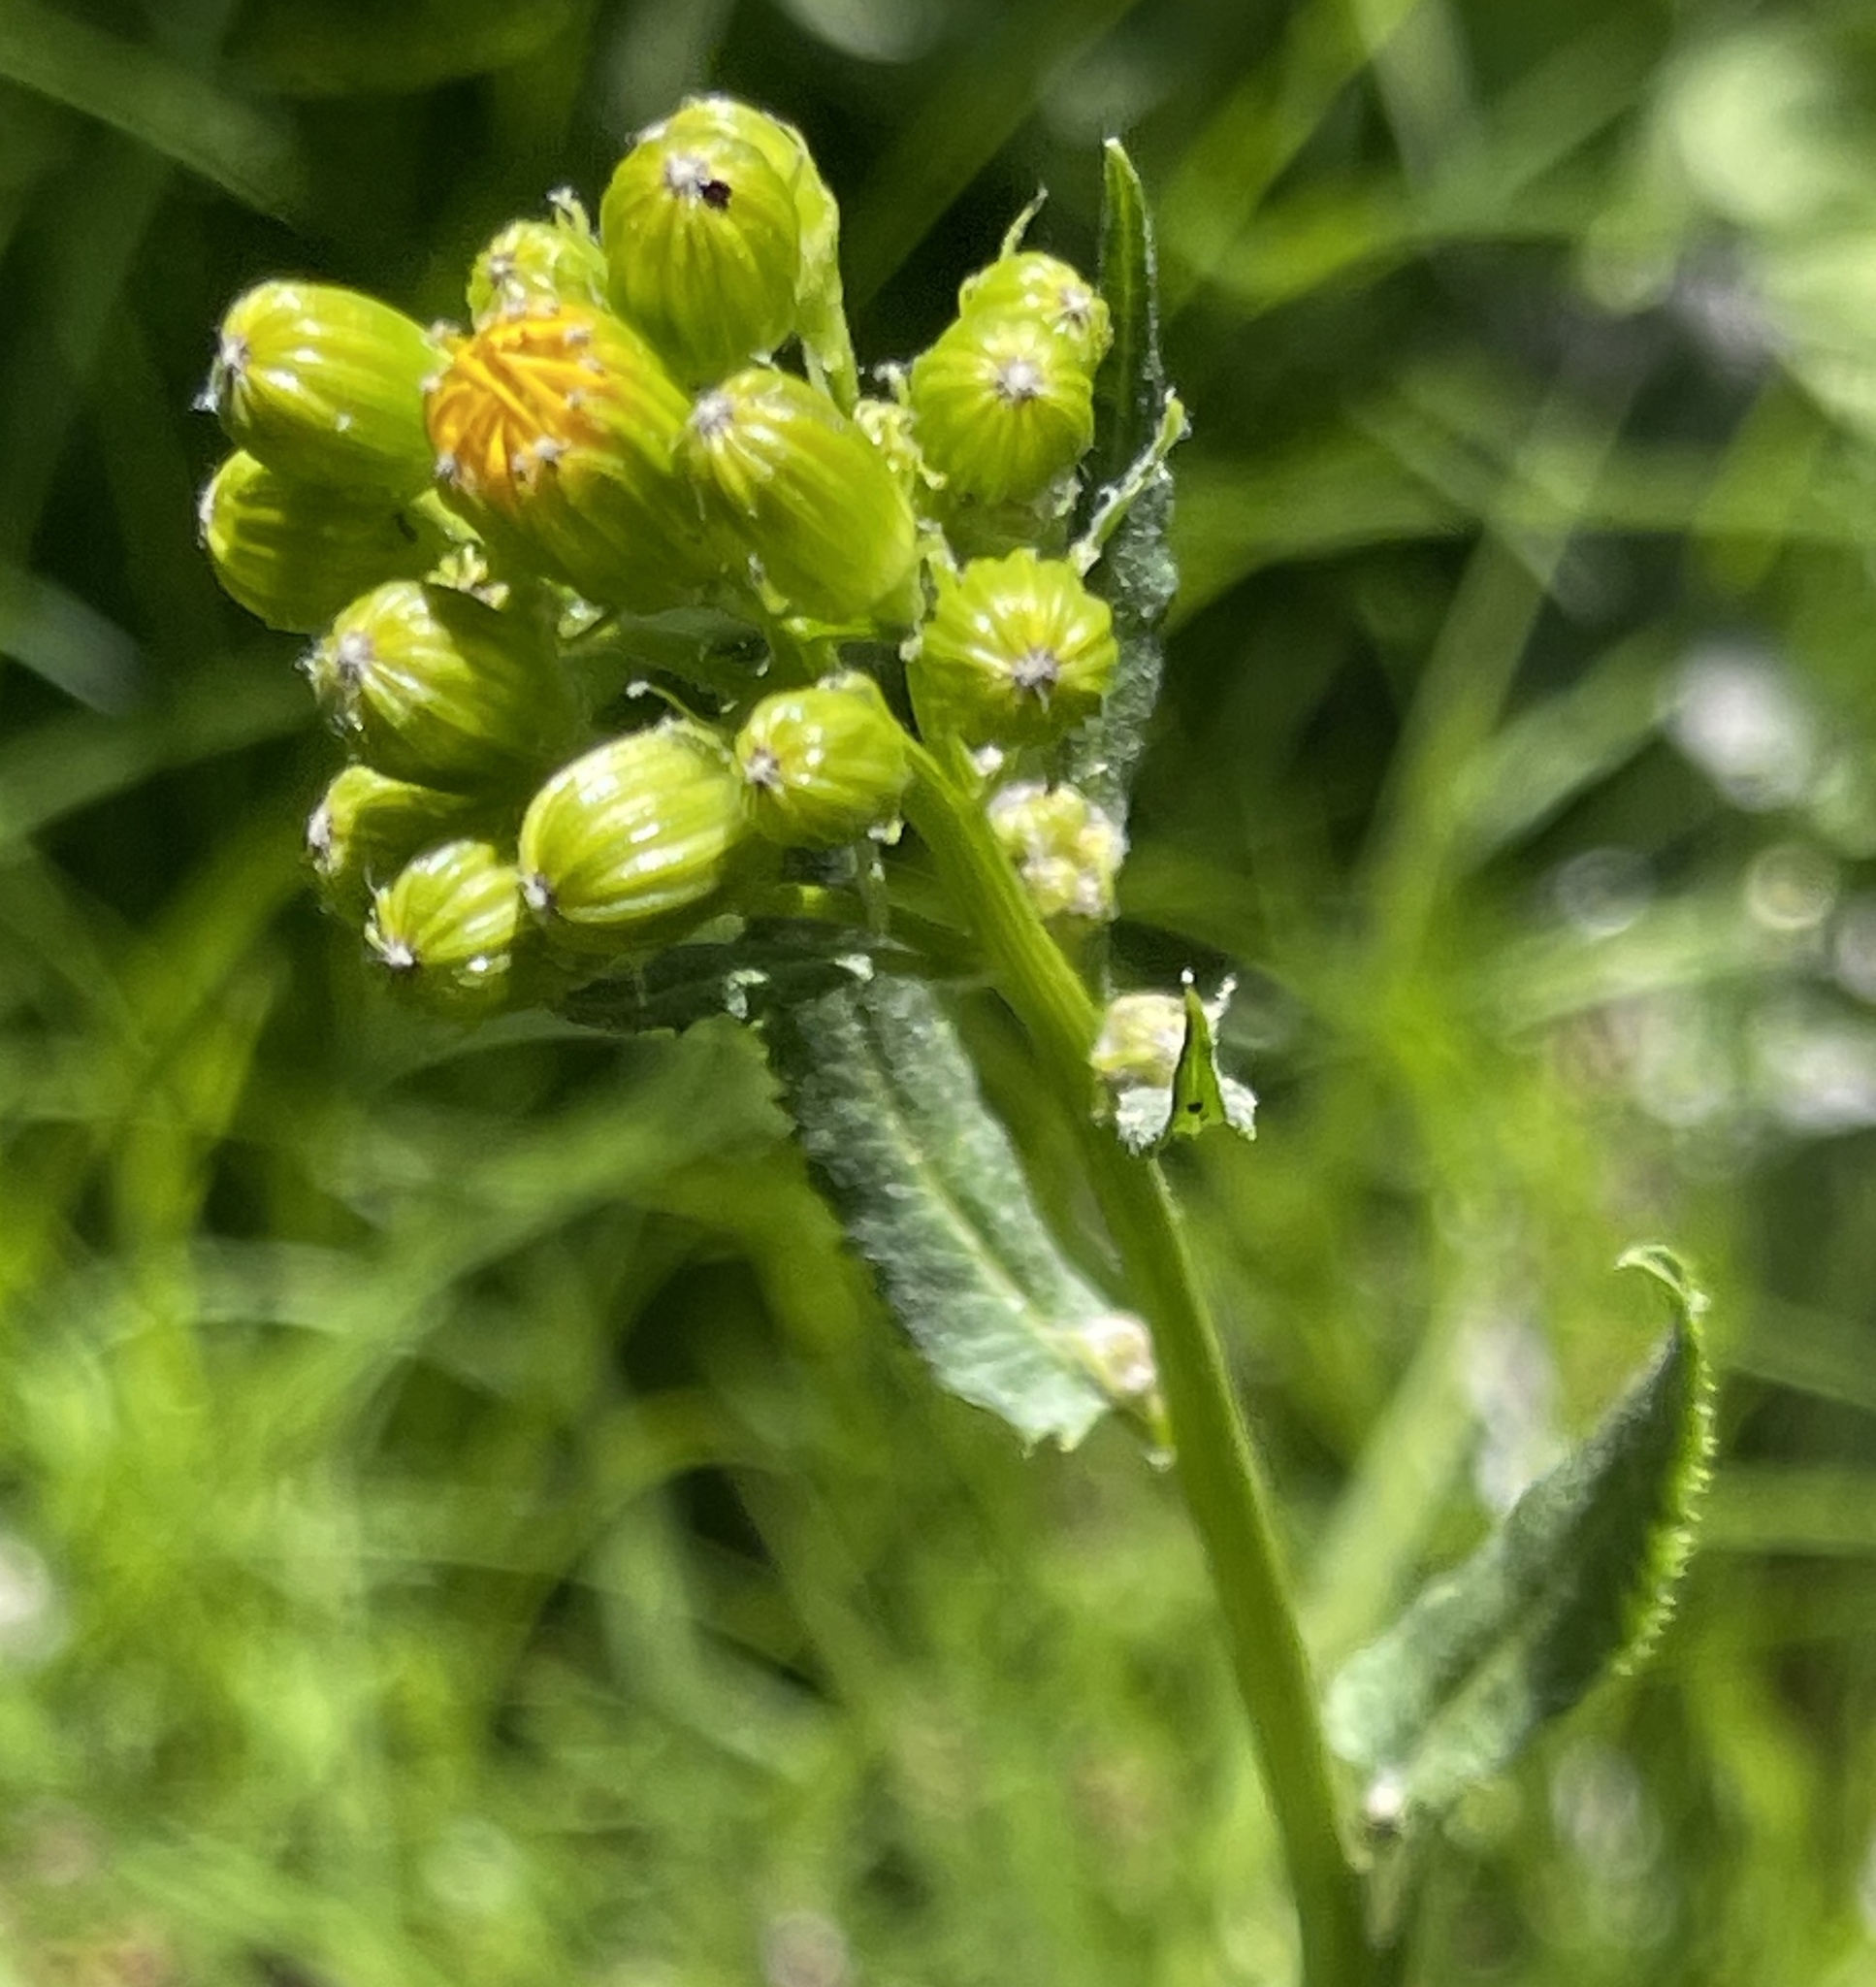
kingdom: Plantae
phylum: Tracheophyta
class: Magnoliopsida
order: Asterales
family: Asteraceae
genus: Senecio
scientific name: Senecio triangularis
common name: Arrowleaf butterweed
